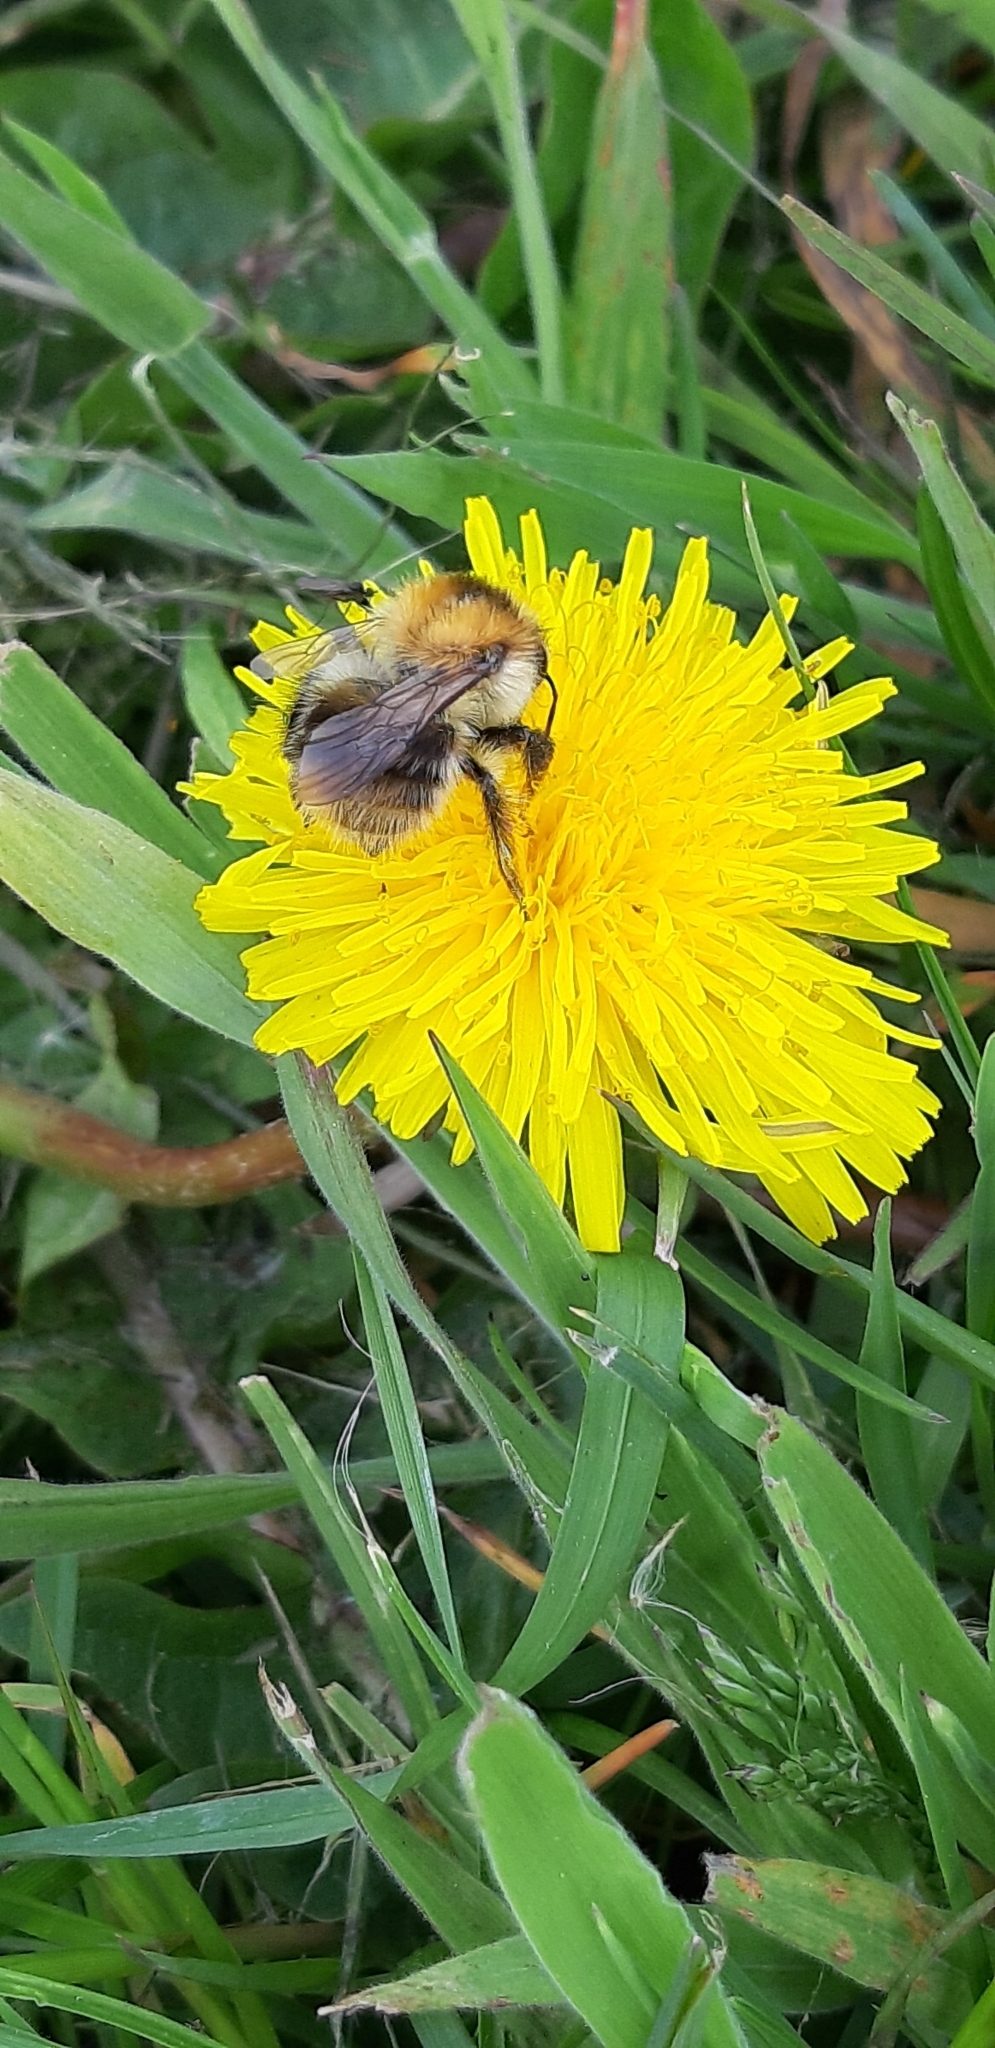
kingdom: Animalia
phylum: Arthropoda
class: Insecta
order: Hymenoptera
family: Apidae
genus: Bombus
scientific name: Bombus pascuorum
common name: Common carder bee
